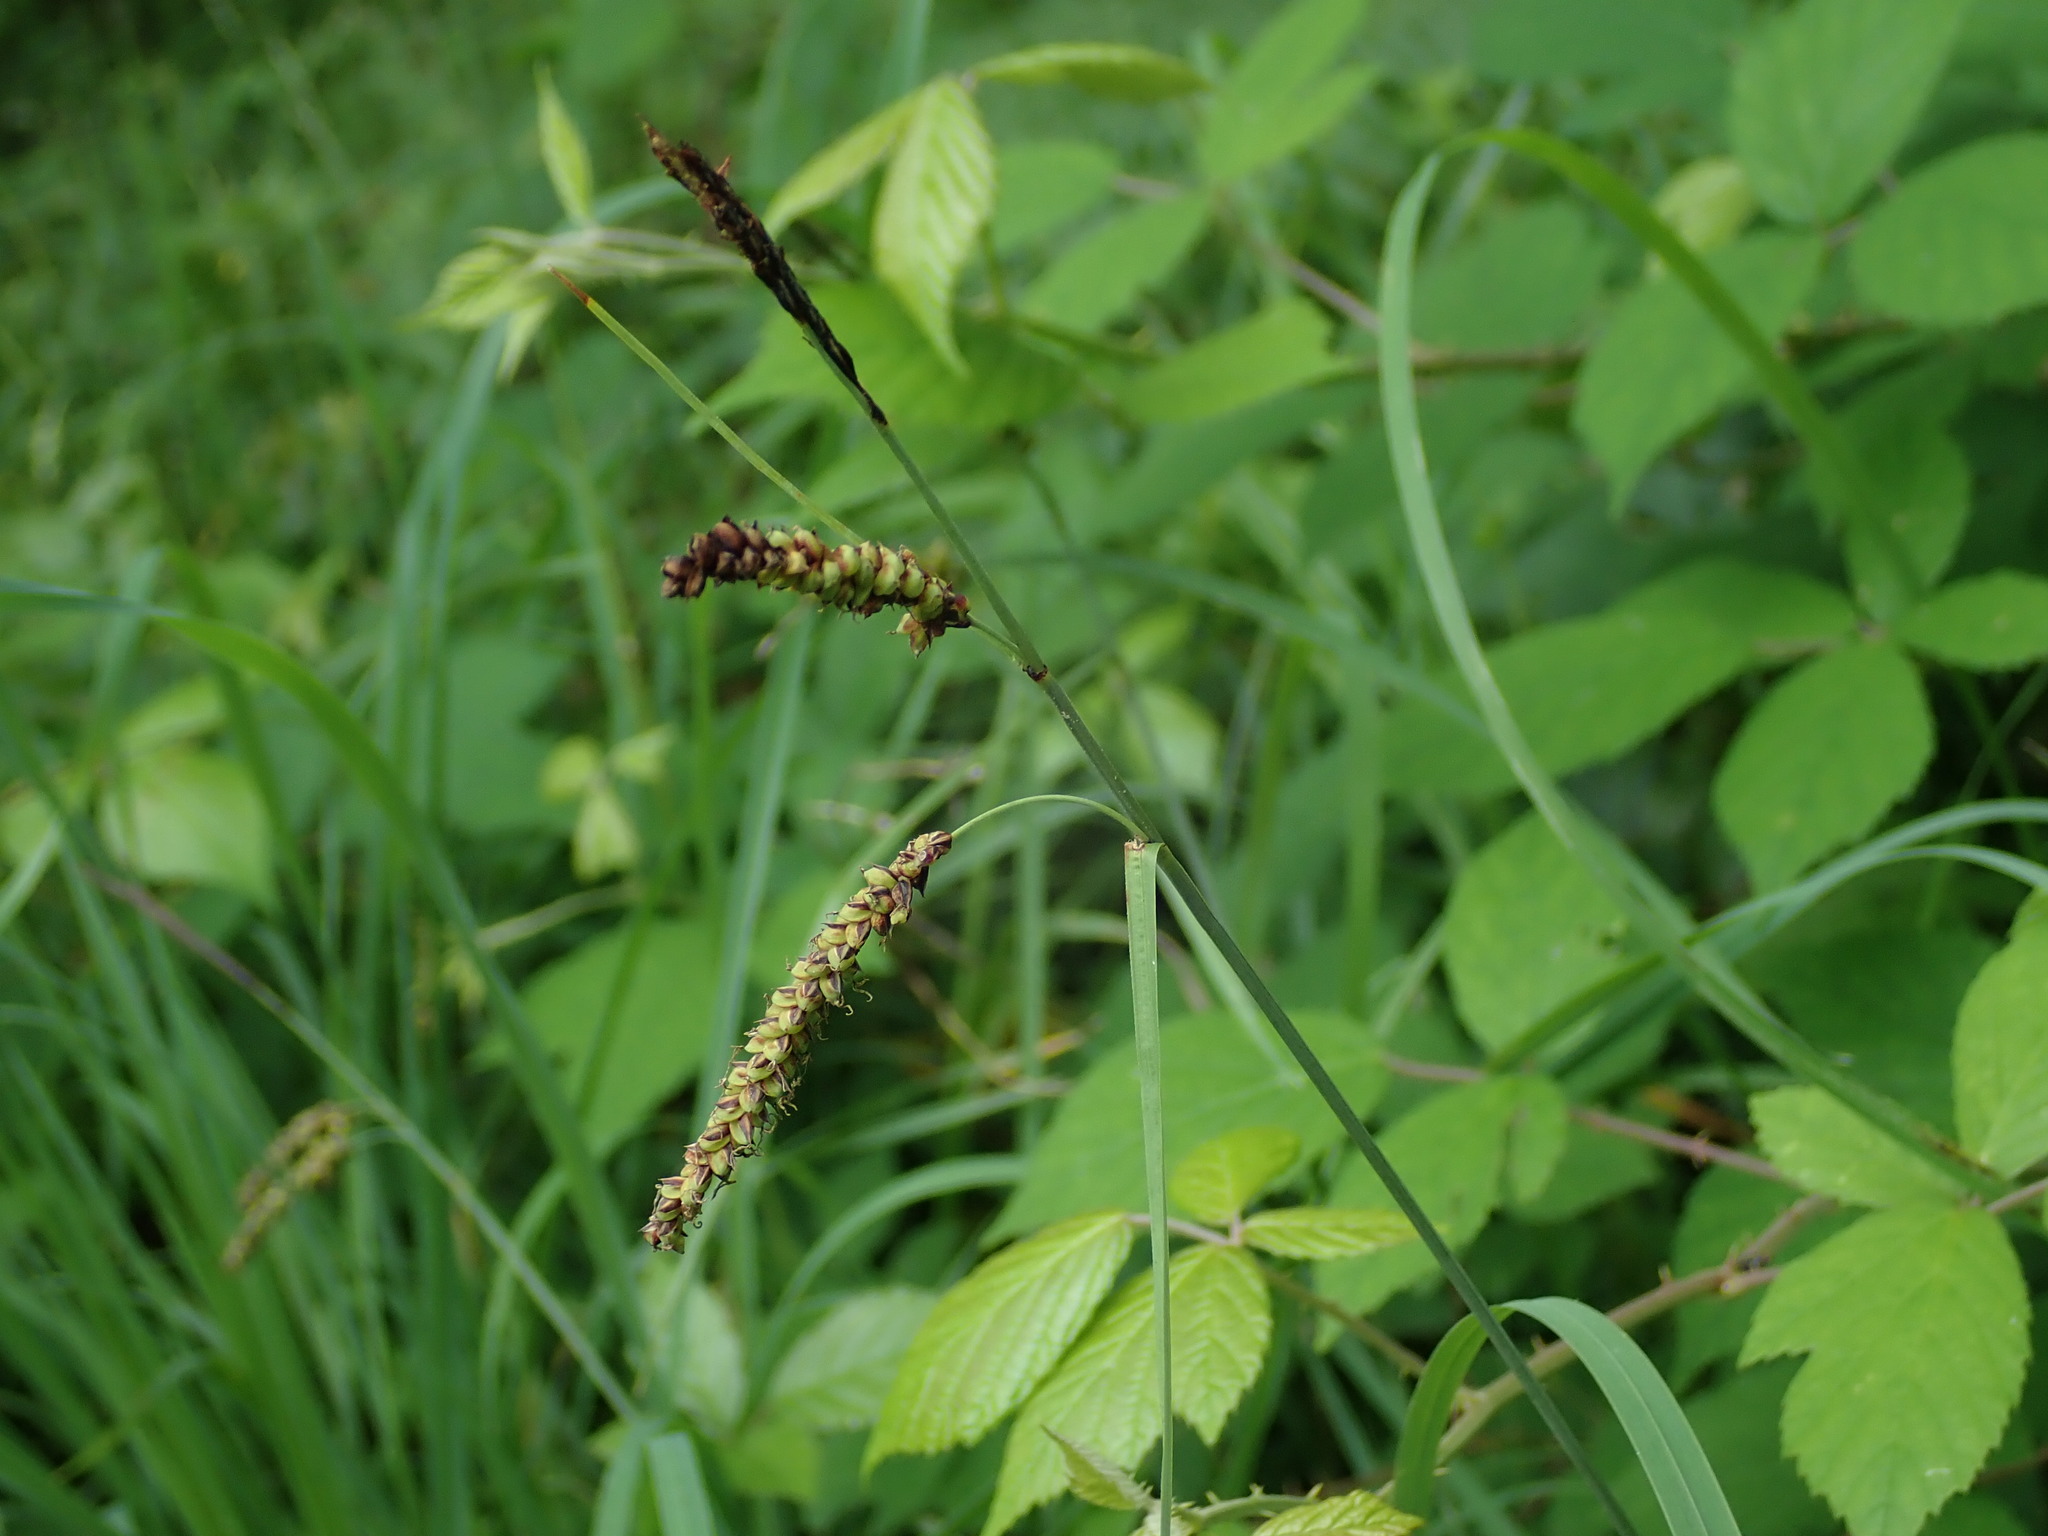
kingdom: Plantae
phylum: Tracheophyta
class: Liliopsida
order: Poales
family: Cyperaceae
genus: Carex
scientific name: Carex flacca
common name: Glaucous sedge
